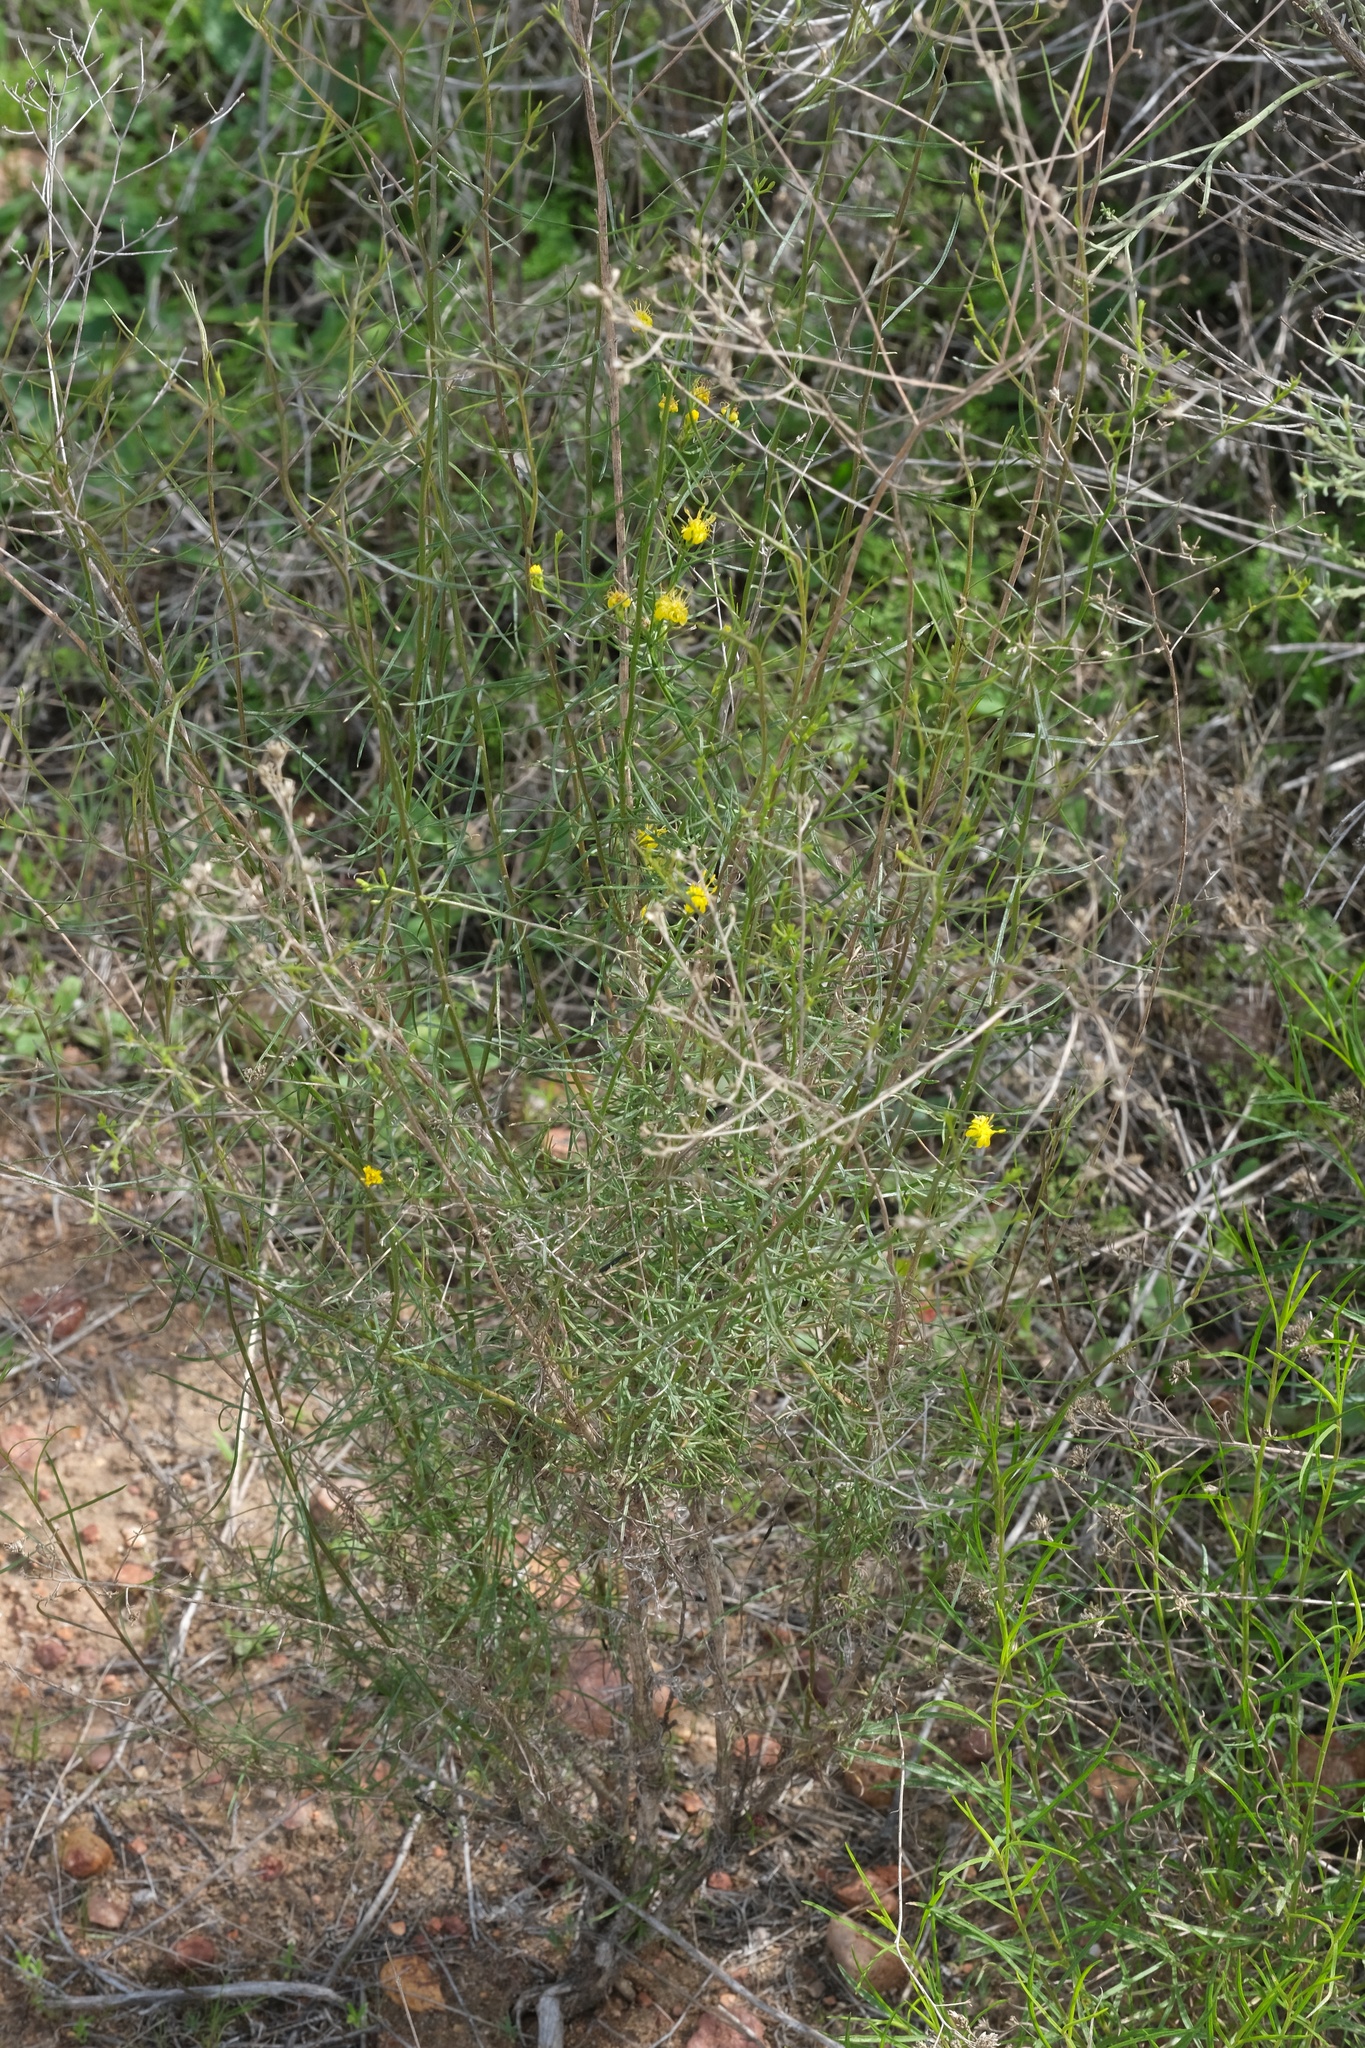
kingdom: Plantae
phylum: Tracheophyta
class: Magnoliopsida
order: Asterales
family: Asteraceae
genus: Gutierrezia
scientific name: Gutierrezia sarothrae
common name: Broom snakeweed
